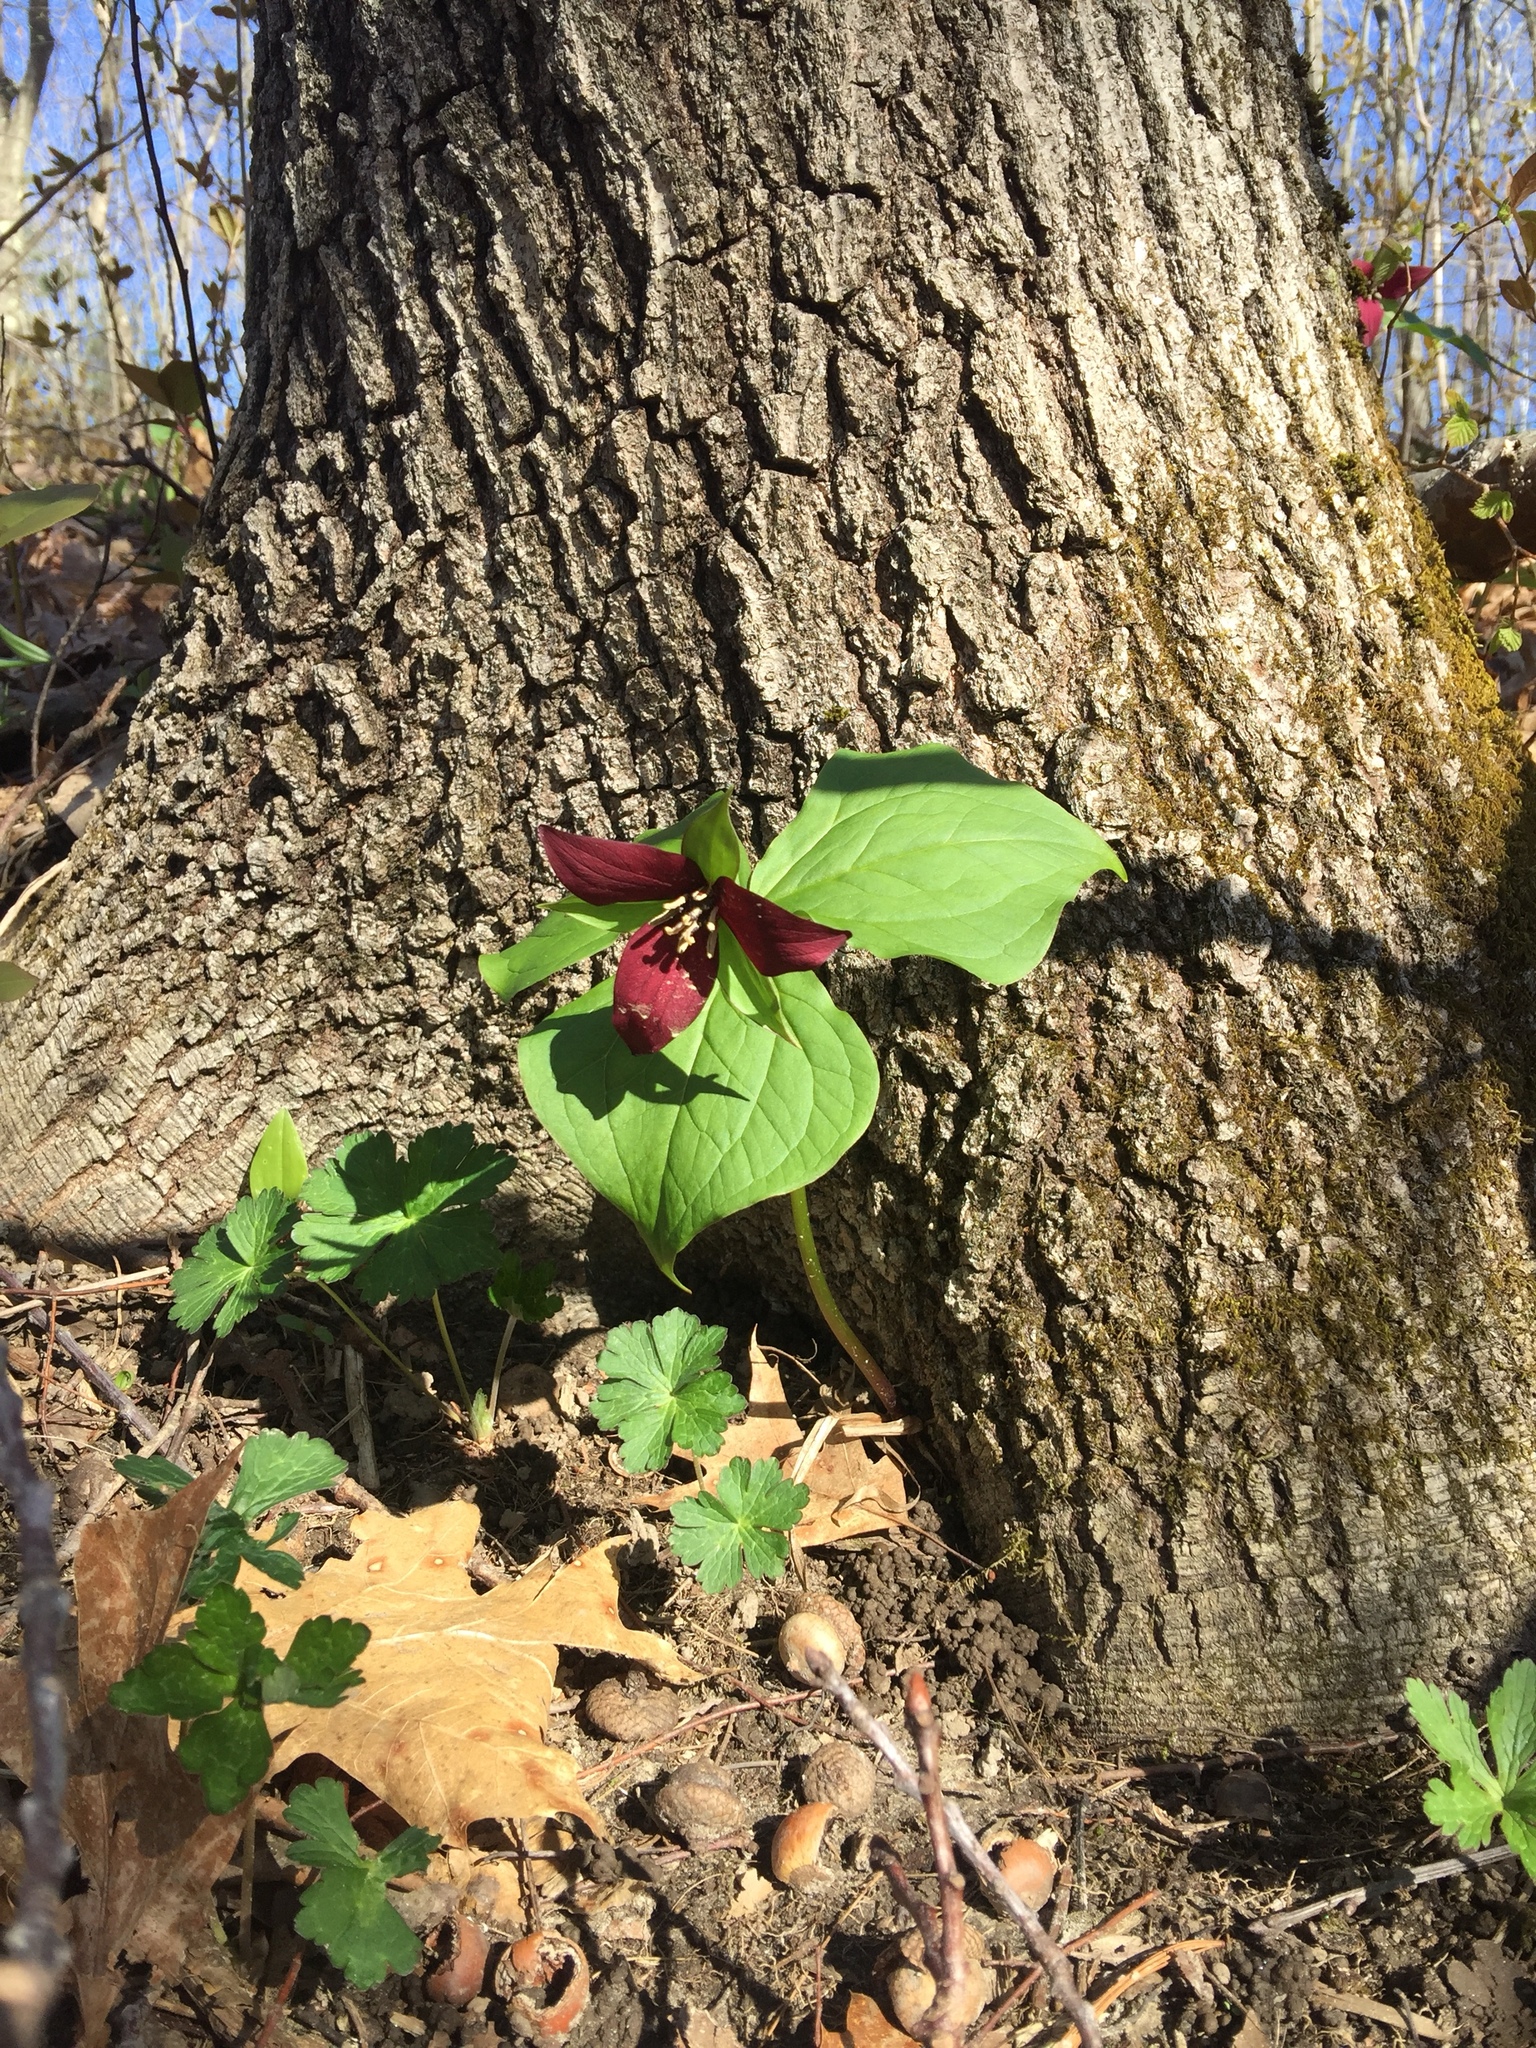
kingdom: Plantae
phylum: Tracheophyta
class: Liliopsida
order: Liliales
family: Melanthiaceae
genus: Trillium
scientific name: Trillium erectum
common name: Purple trillium
